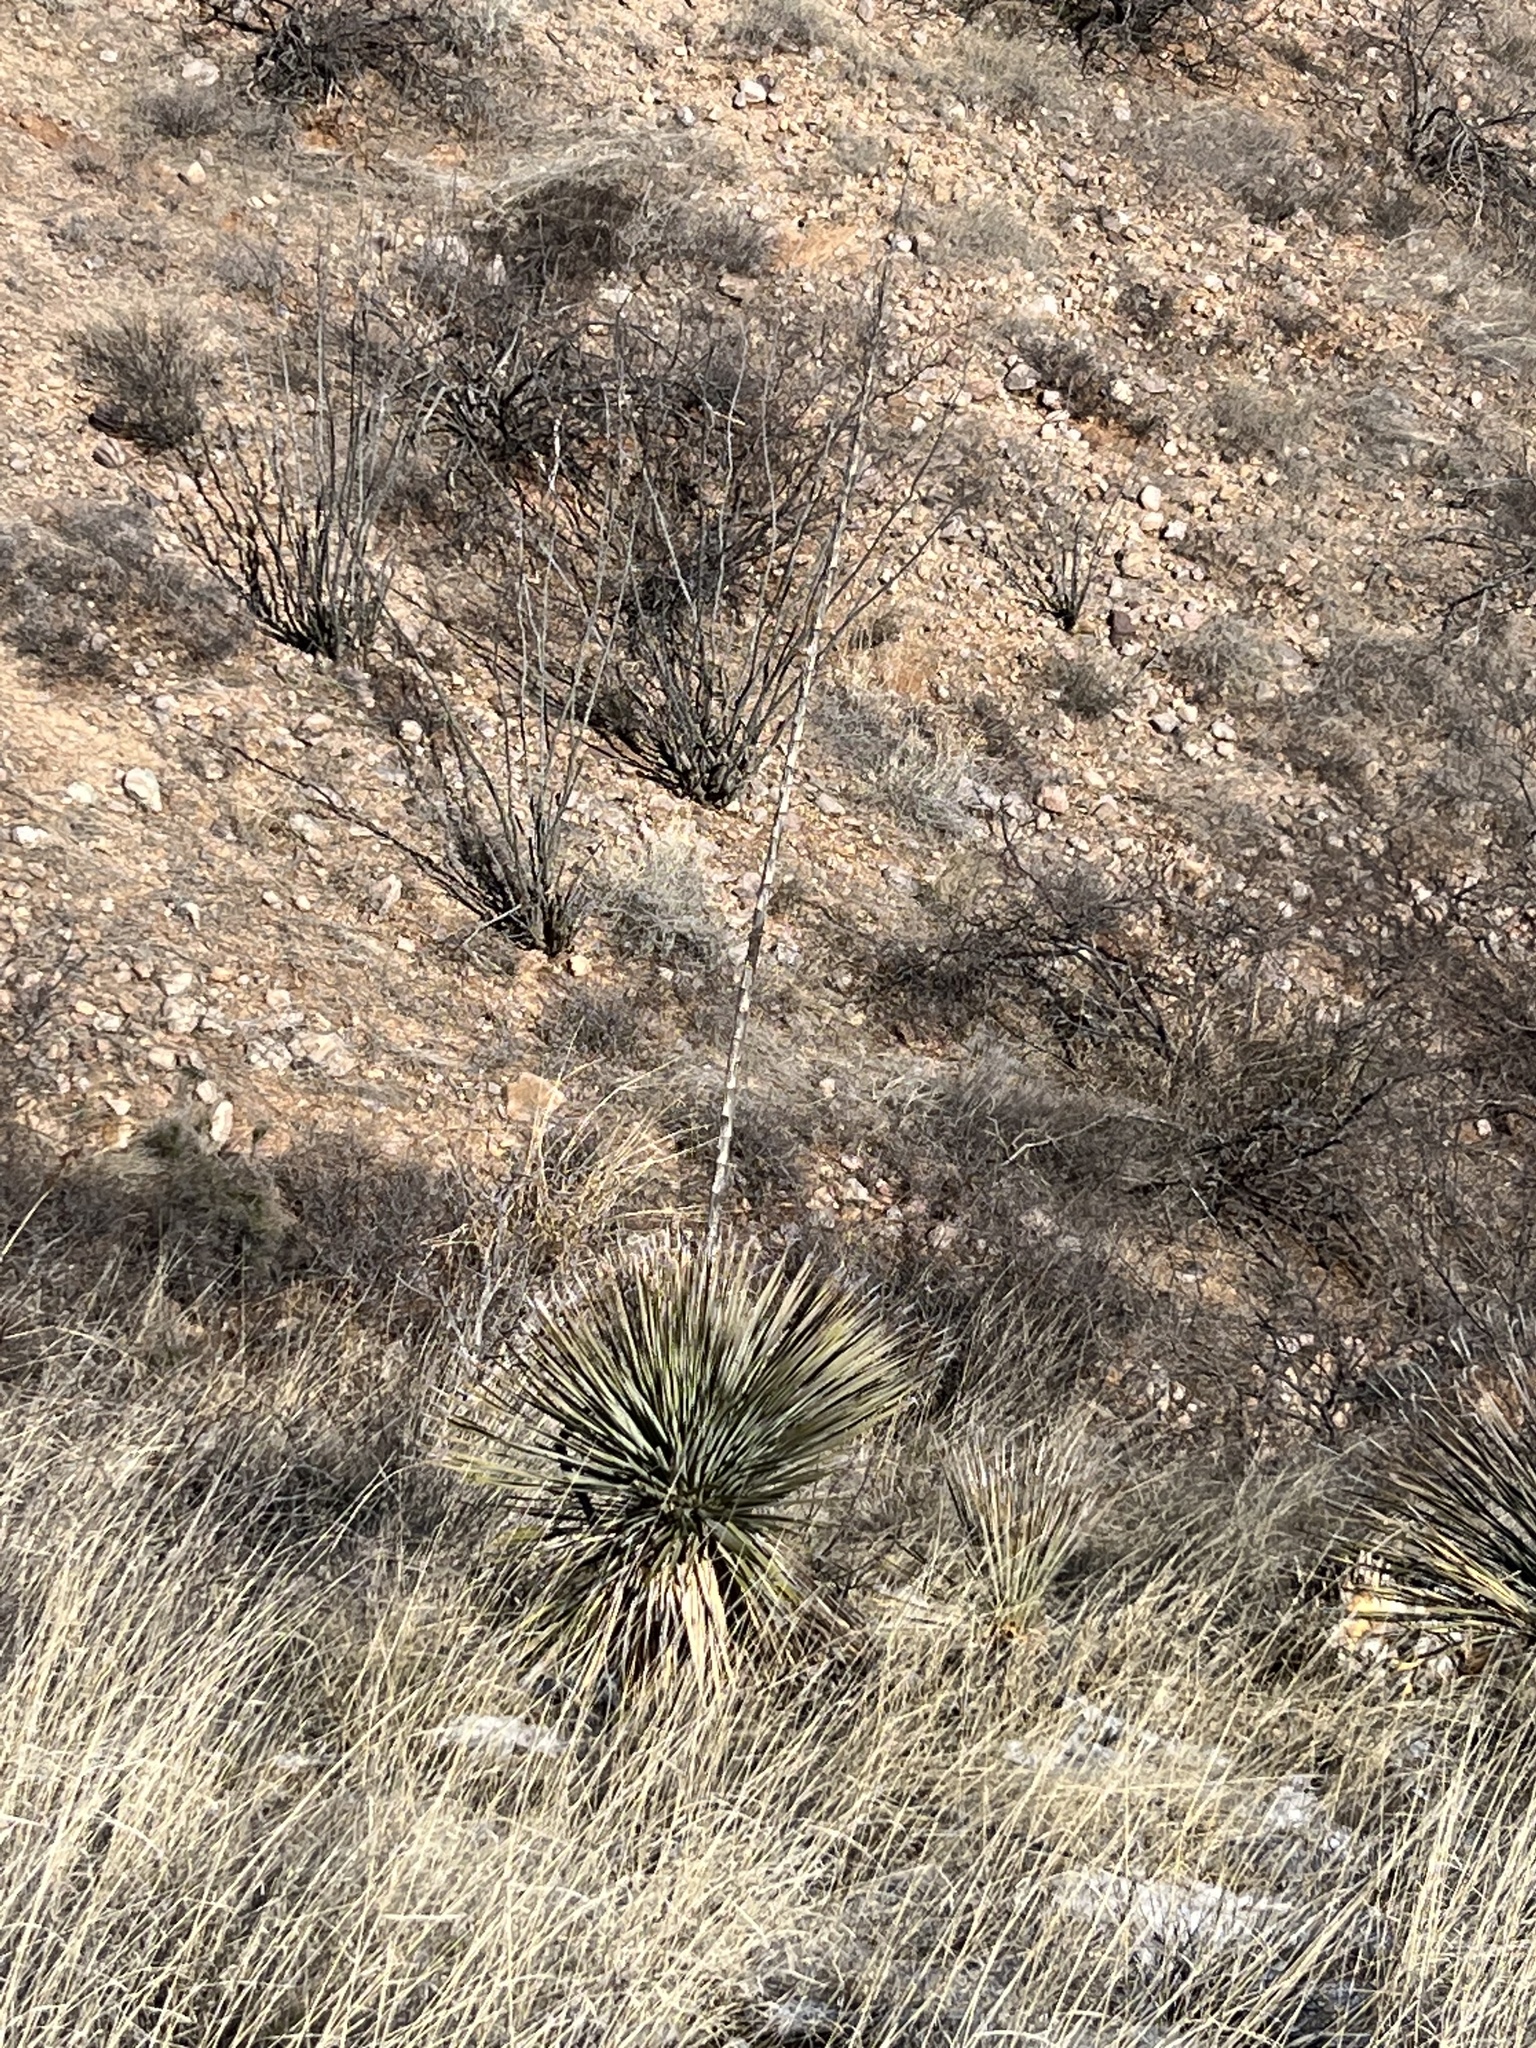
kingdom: Plantae
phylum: Tracheophyta
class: Liliopsida
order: Asparagales
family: Asparagaceae
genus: Dasylirion
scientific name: Dasylirion wheeleri
